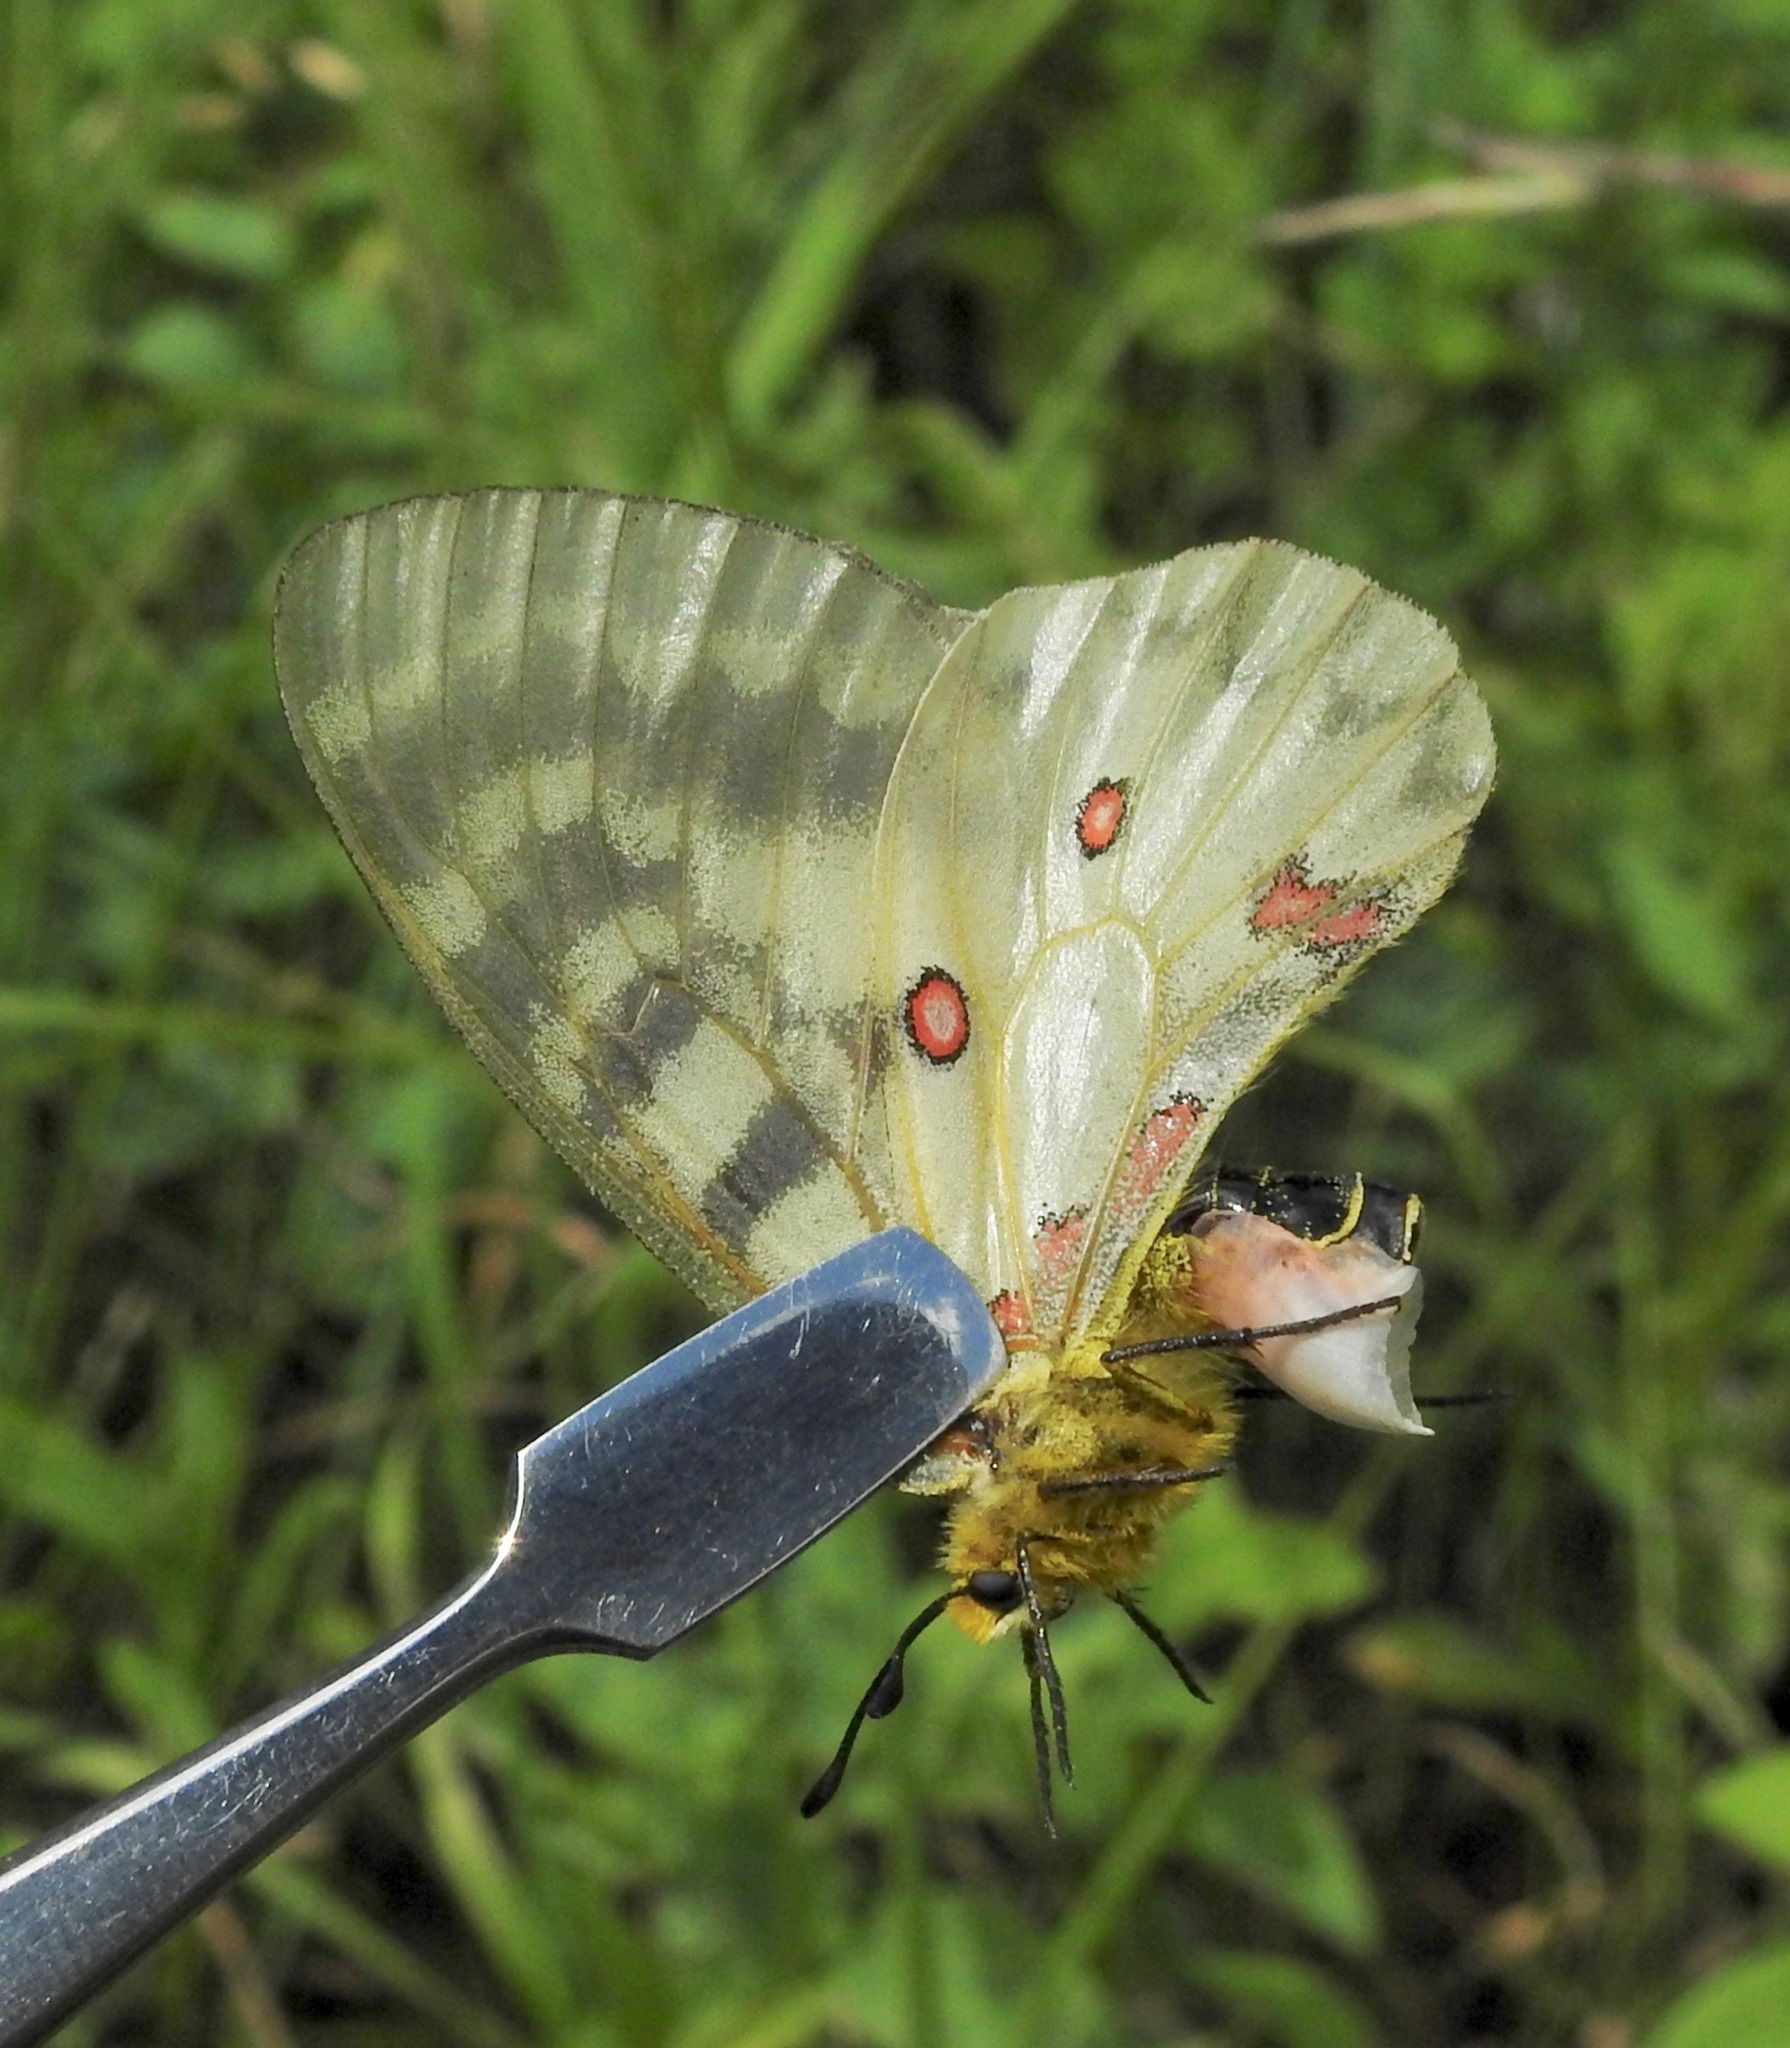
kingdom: Animalia
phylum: Arthropoda
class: Insecta
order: Lepidoptera
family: Papilionidae
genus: Parnassius
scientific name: Parnassius clodius
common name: American apollo
